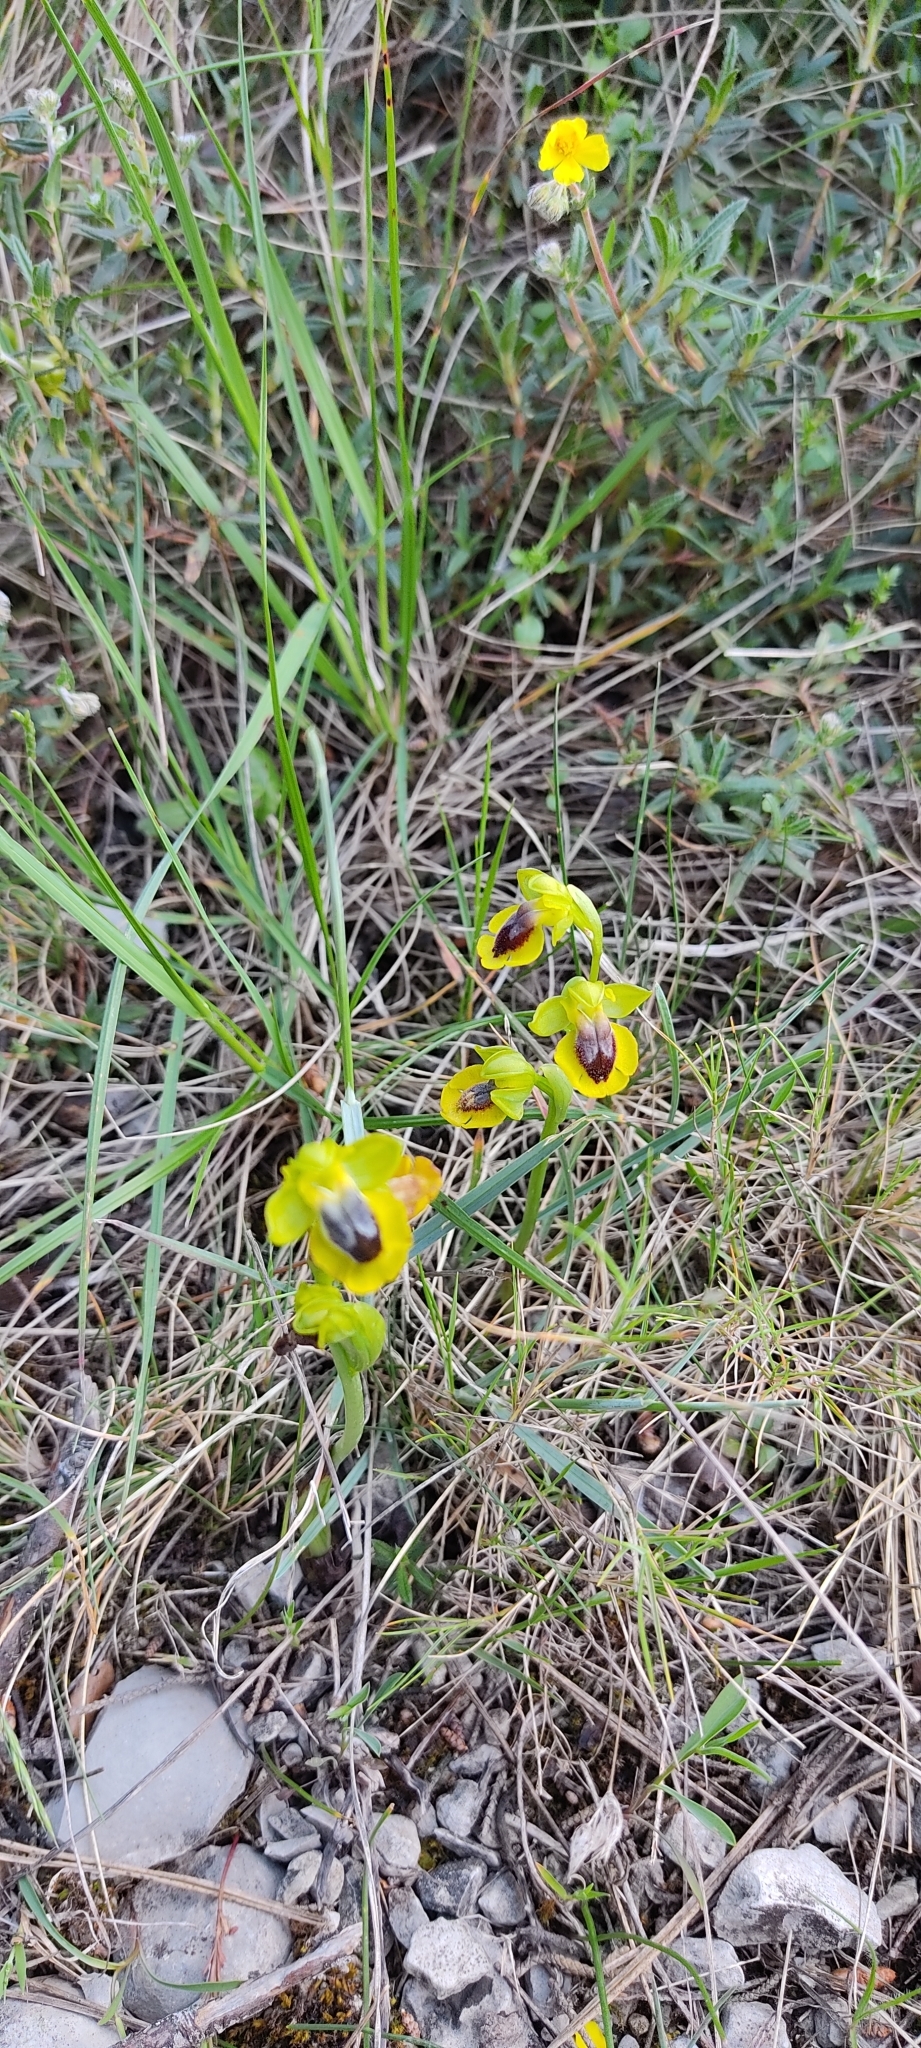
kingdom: Plantae
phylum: Tracheophyta
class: Liliopsida
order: Asparagales
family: Orchidaceae
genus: Ophrys
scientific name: Ophrys lutea
